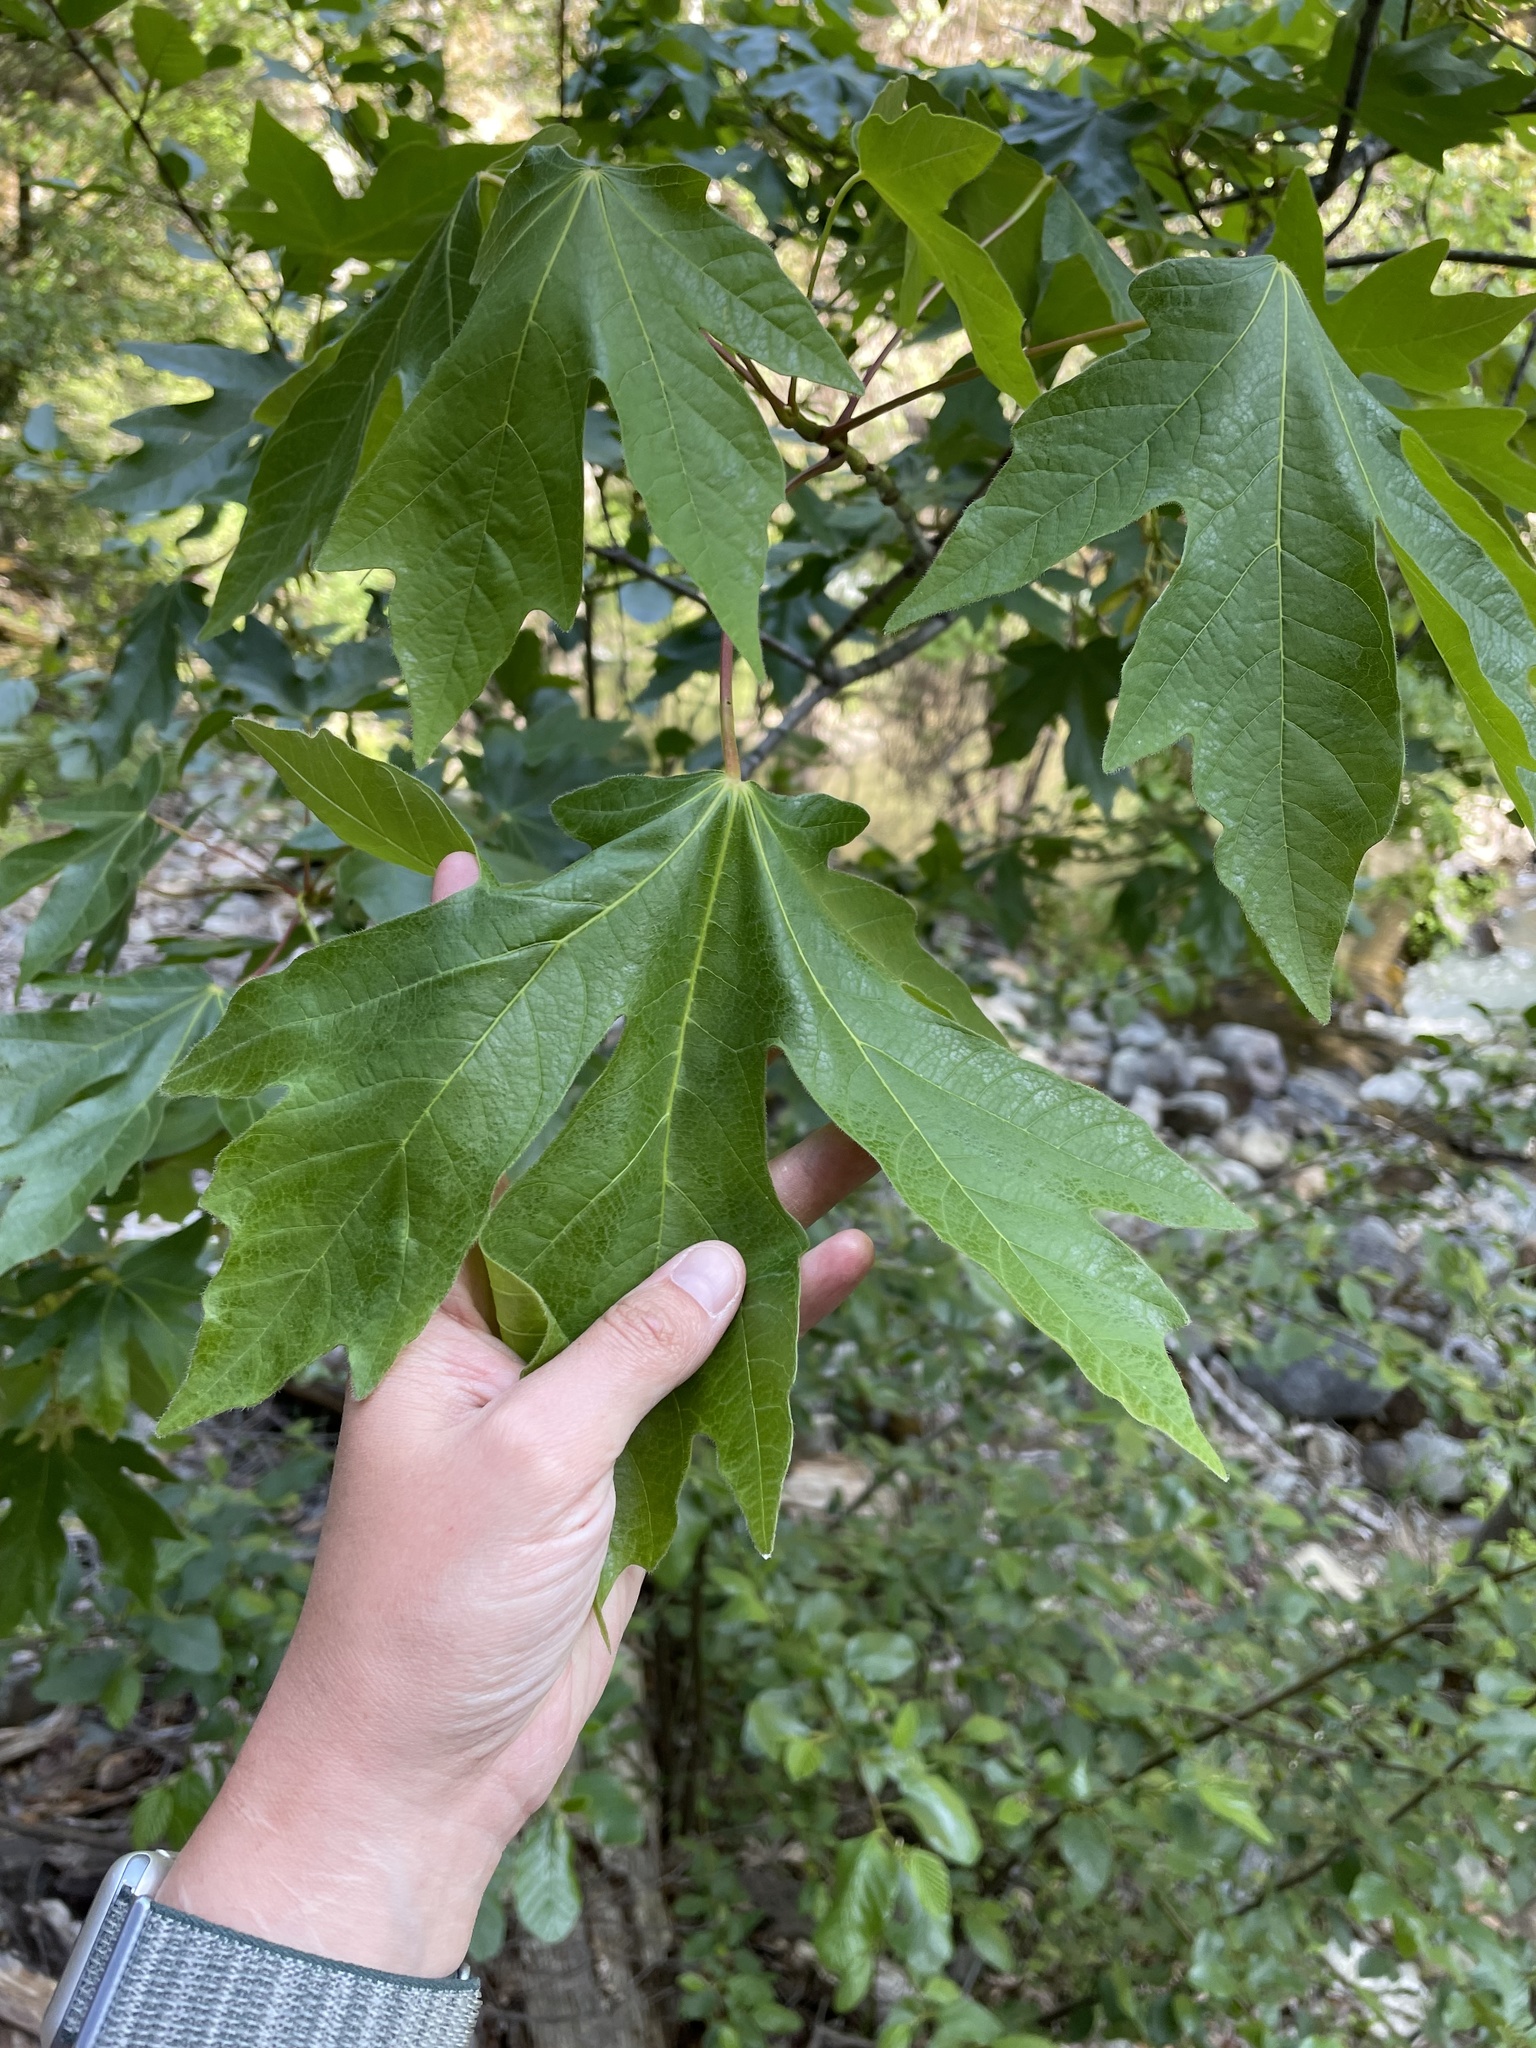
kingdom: Plantae
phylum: Tracheophyta
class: Magnoliopsida
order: Sapindales
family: Sapindaceae
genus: Acer
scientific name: Acer macrophyllum
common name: Oregon maple
